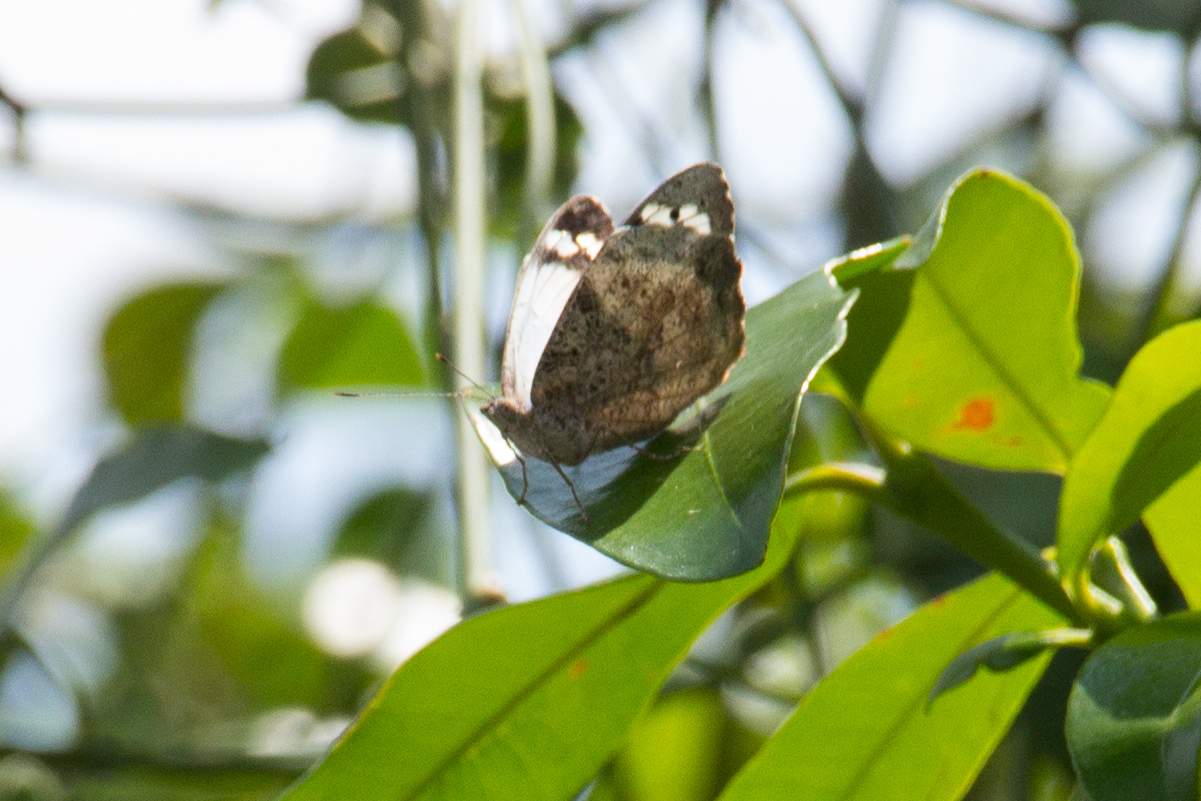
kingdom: Animalia
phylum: Arthropoda
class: Insecta
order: Lepidoptera
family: Nymphalidae
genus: Eunica
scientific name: Eunica eburnea
